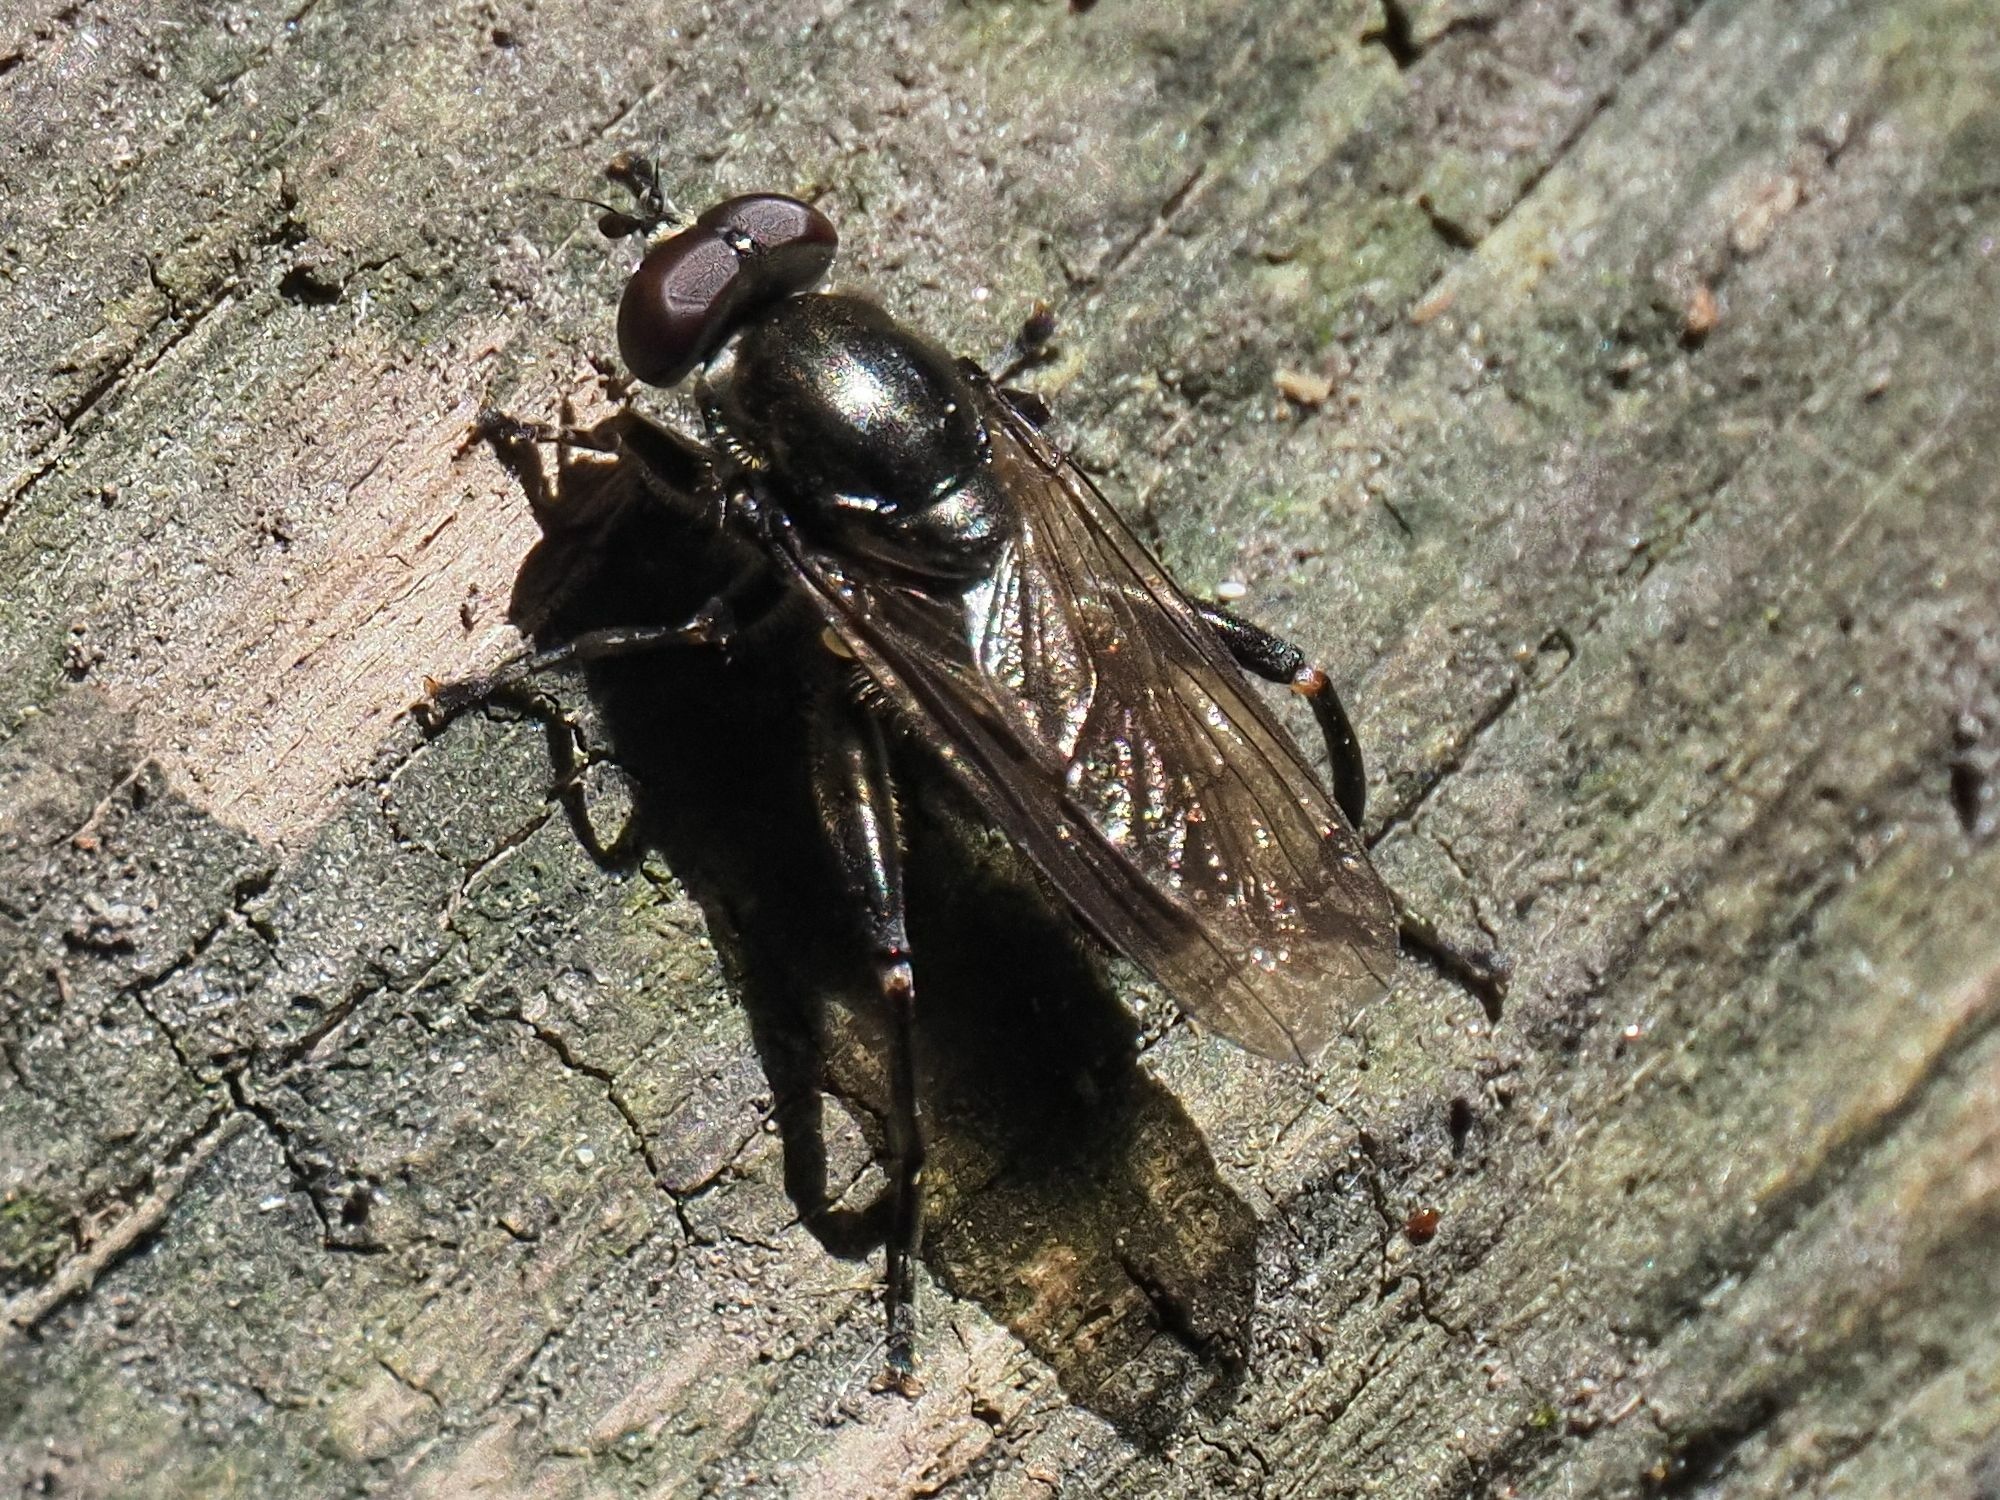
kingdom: Animalia
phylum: Arthropoda
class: Insecta
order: Diptera
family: Syrphidae
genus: Chalcosyrphus
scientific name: Chalcosyrphus nemorum
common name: Dusky-banded forest fly
